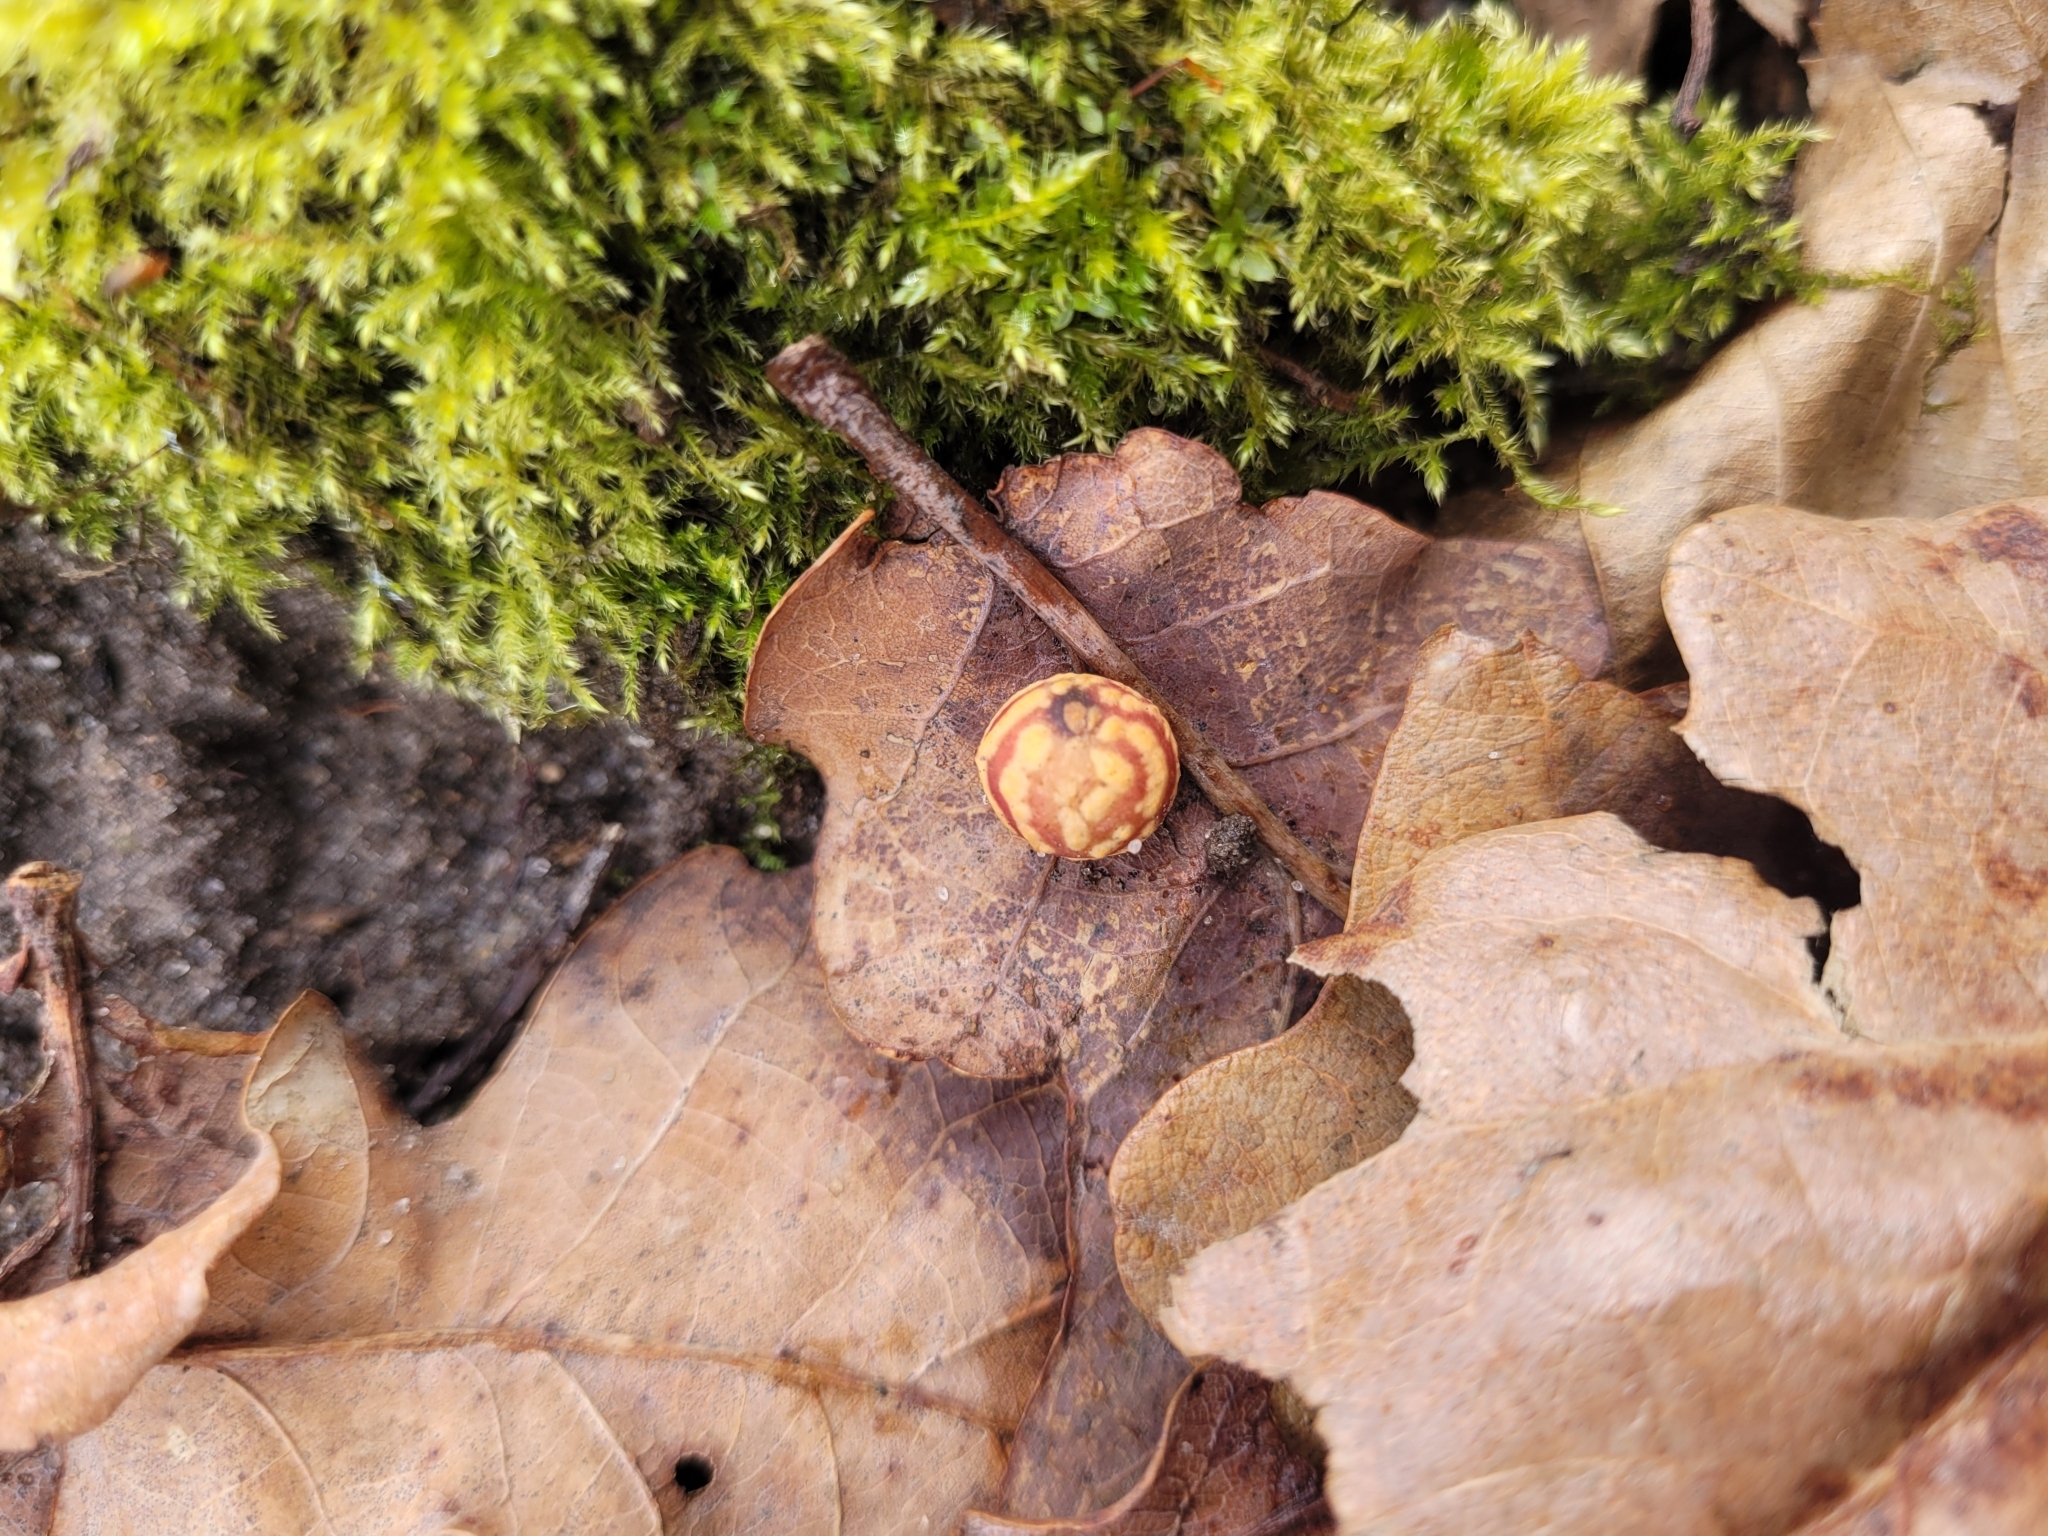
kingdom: Animalia
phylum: Arthropoda
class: Insecta
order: Hymenoptera
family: Cynipidae
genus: Cynips
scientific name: Cynips longiventris
